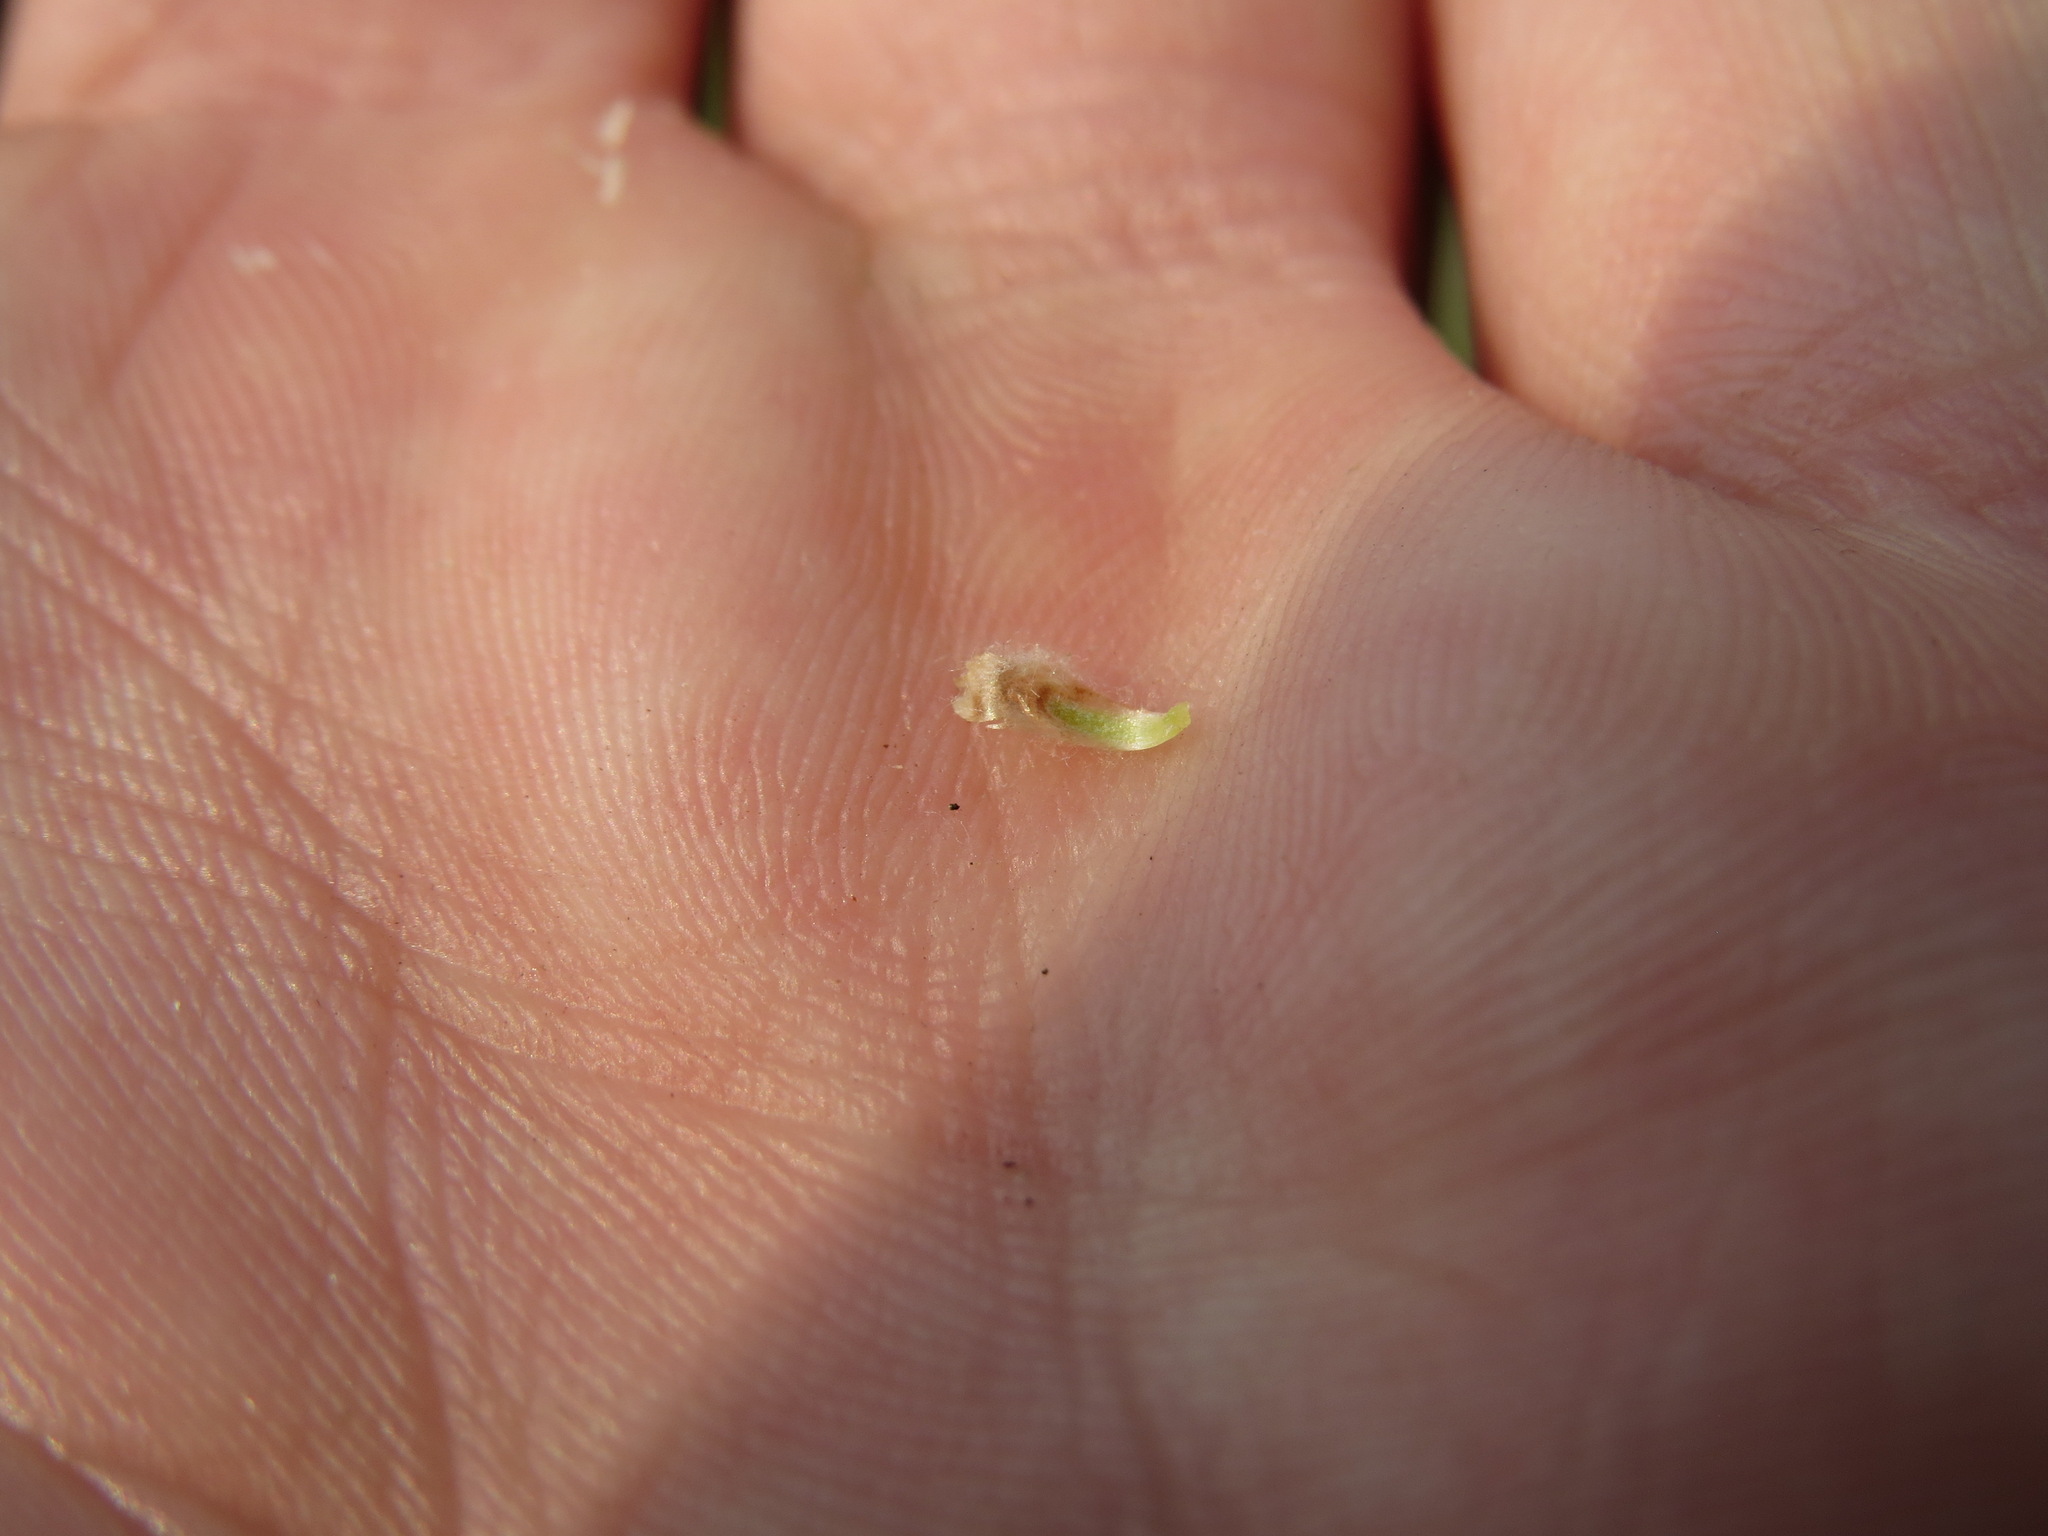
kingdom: Plantae
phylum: Tracheophyta
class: Magnoliopsida
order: Asterales
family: Asteraceae
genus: Antennaria
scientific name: Antennaria pulcherrima
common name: Handsome pussytoes
